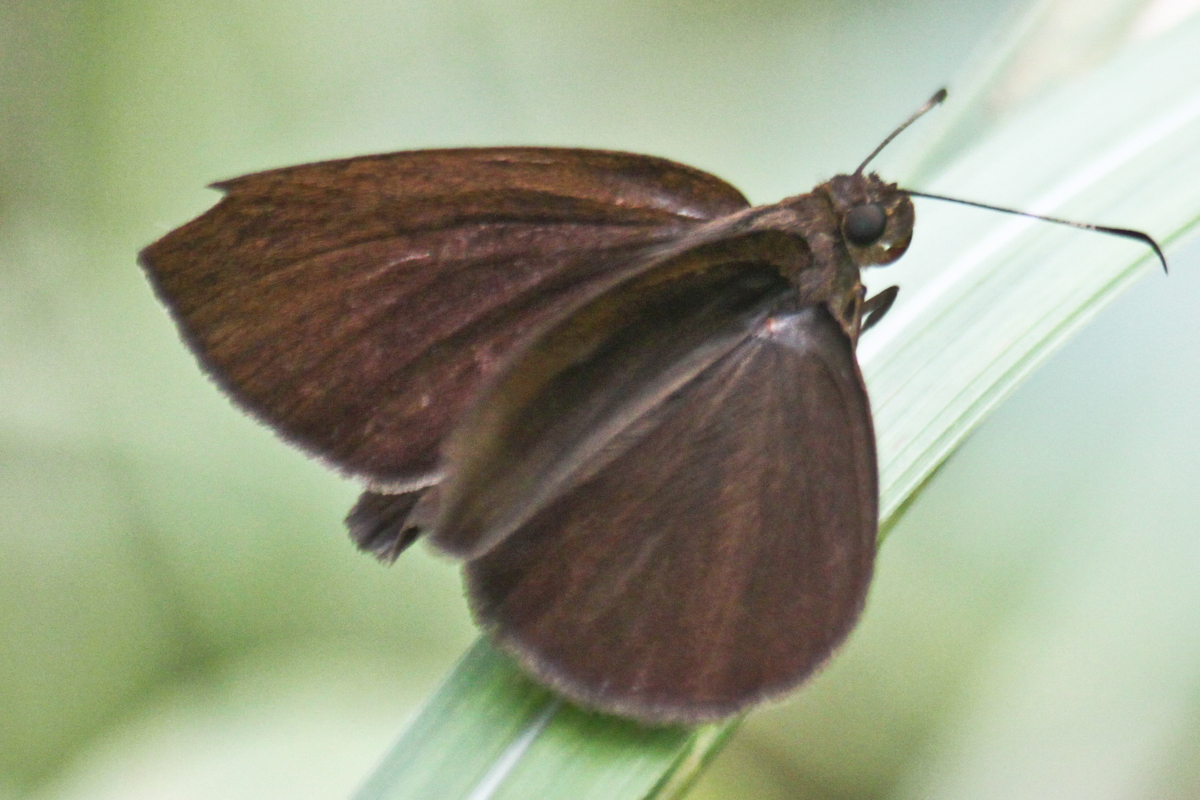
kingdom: Animalia
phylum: Arthropoda
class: Insecta
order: Lepidoptera
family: Hesperiidae
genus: Ancistroides
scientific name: Ancistroides nigrita
